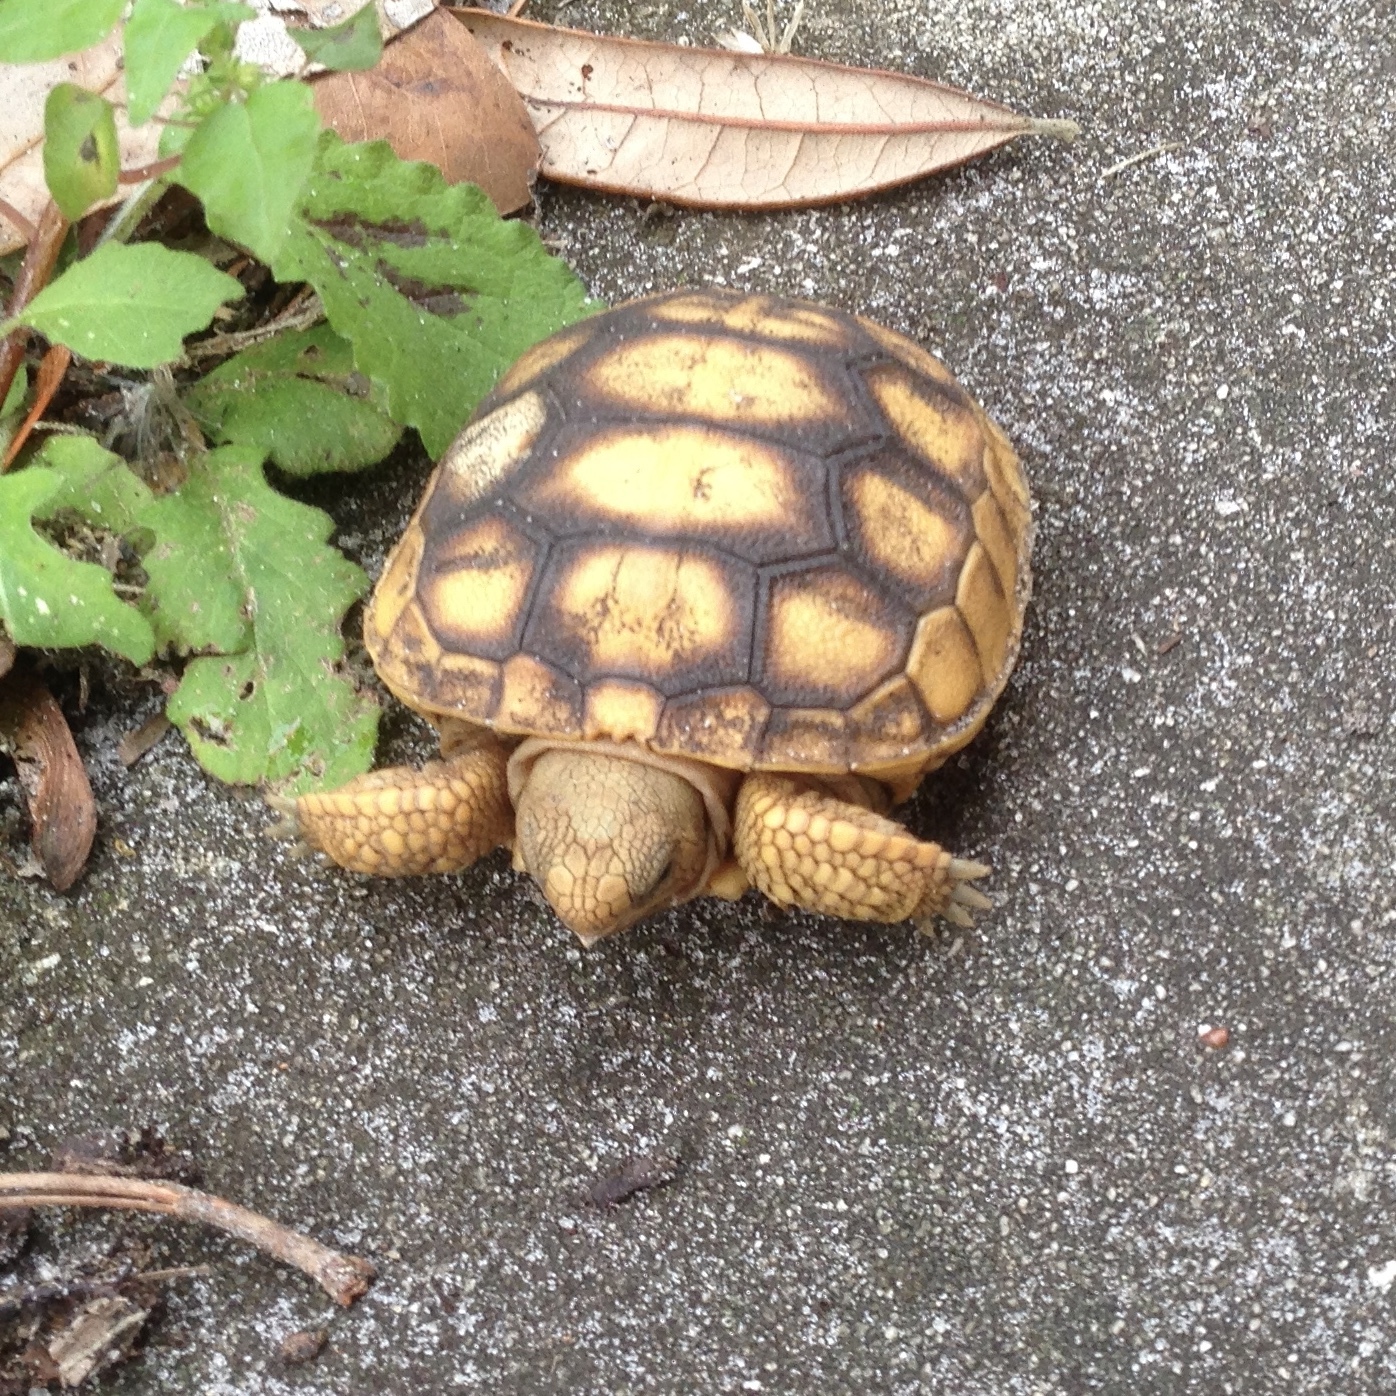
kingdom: Animalia
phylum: Chordata
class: Testudines
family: Testudinidae
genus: Gopherus
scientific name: Gopherus polyphemus
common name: Florida gopher tortoise
